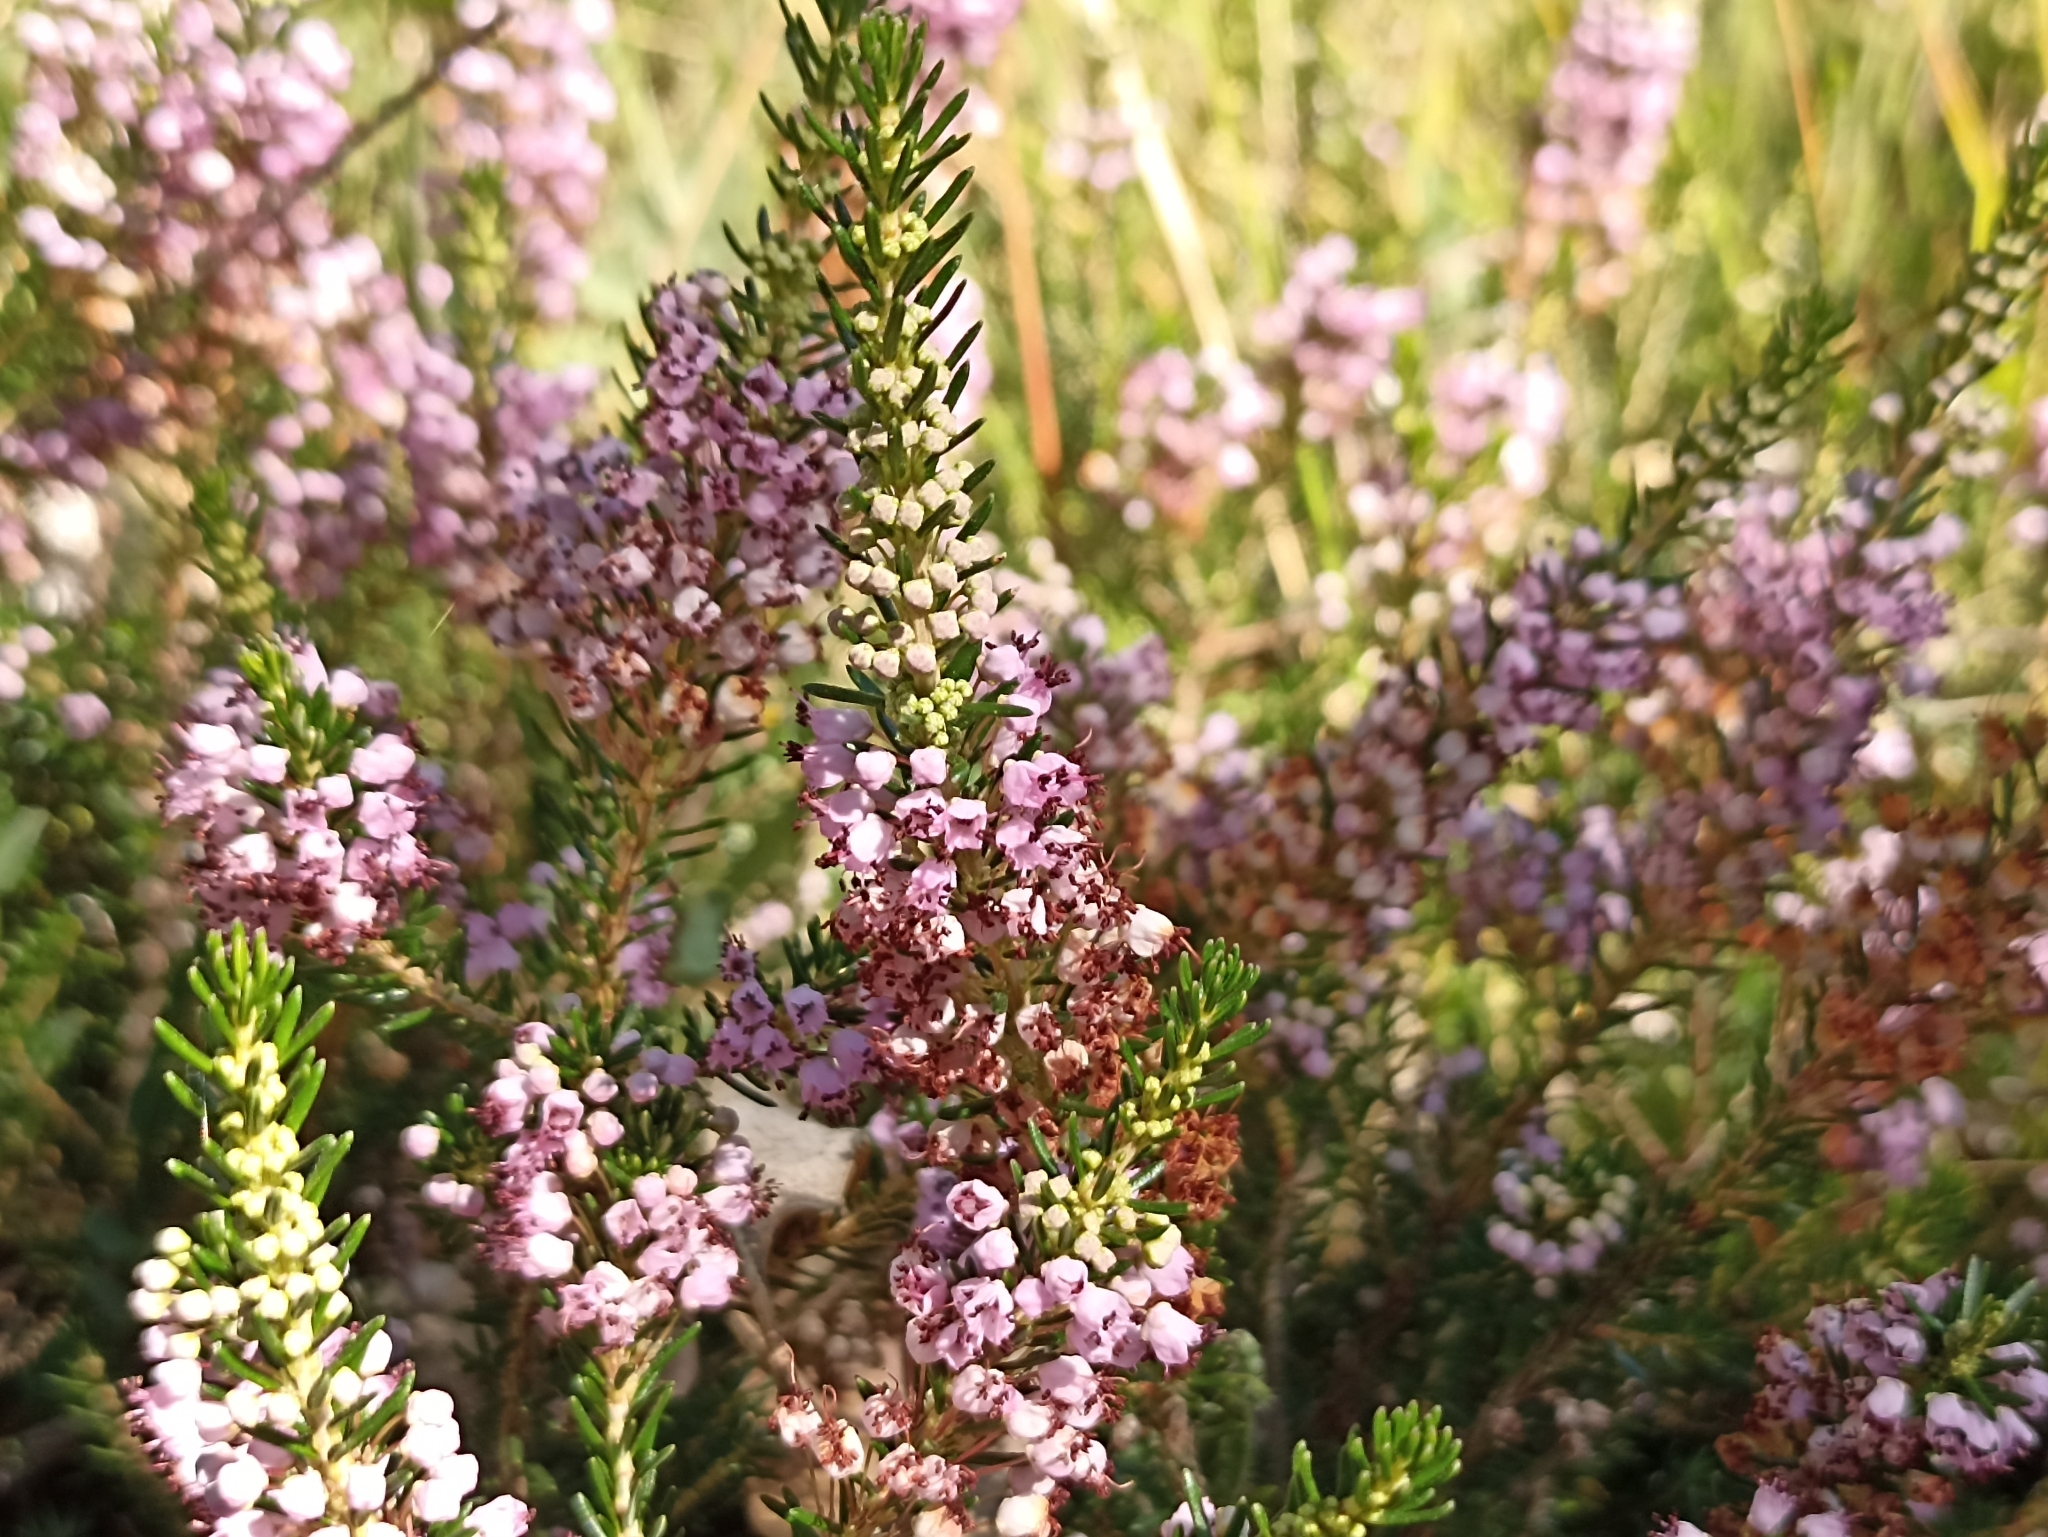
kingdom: Plantae
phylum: Tracheophyta
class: Magnoliopsida
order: Ericales
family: Ericaceae
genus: Erica
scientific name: Erica vagans
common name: Cornish heath
